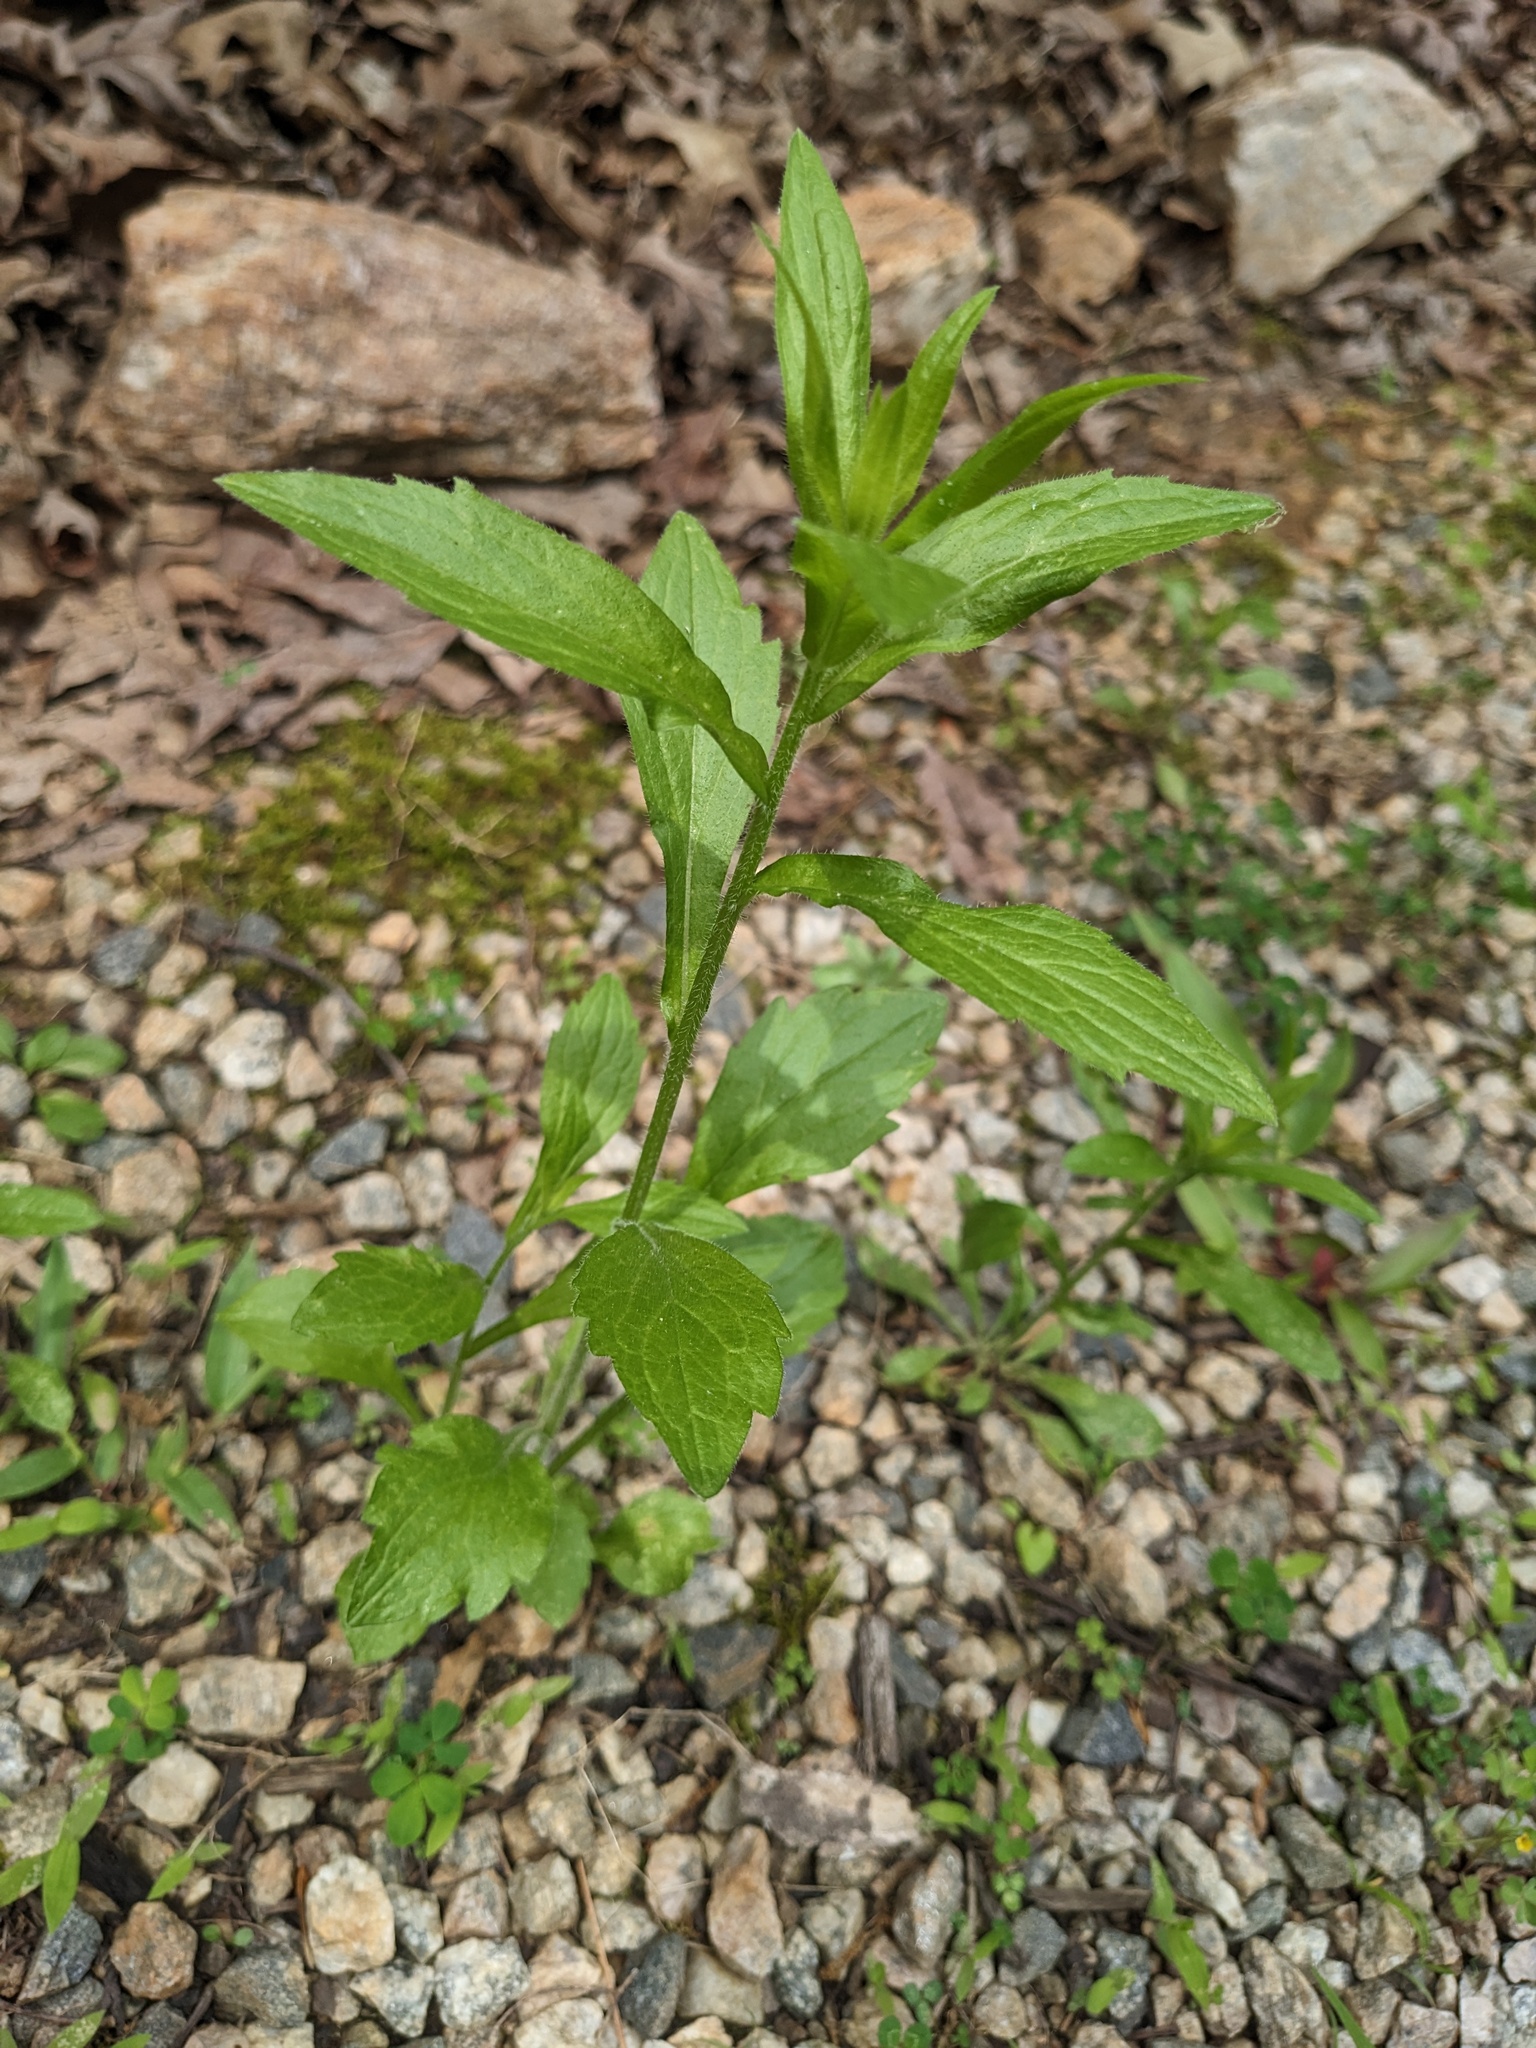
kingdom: Plantae
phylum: Tracheophyta
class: Magnoliopsida
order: Asterales
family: Asteraceae
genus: Erigeron
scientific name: Erigeron annuus
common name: Tall fleabane
